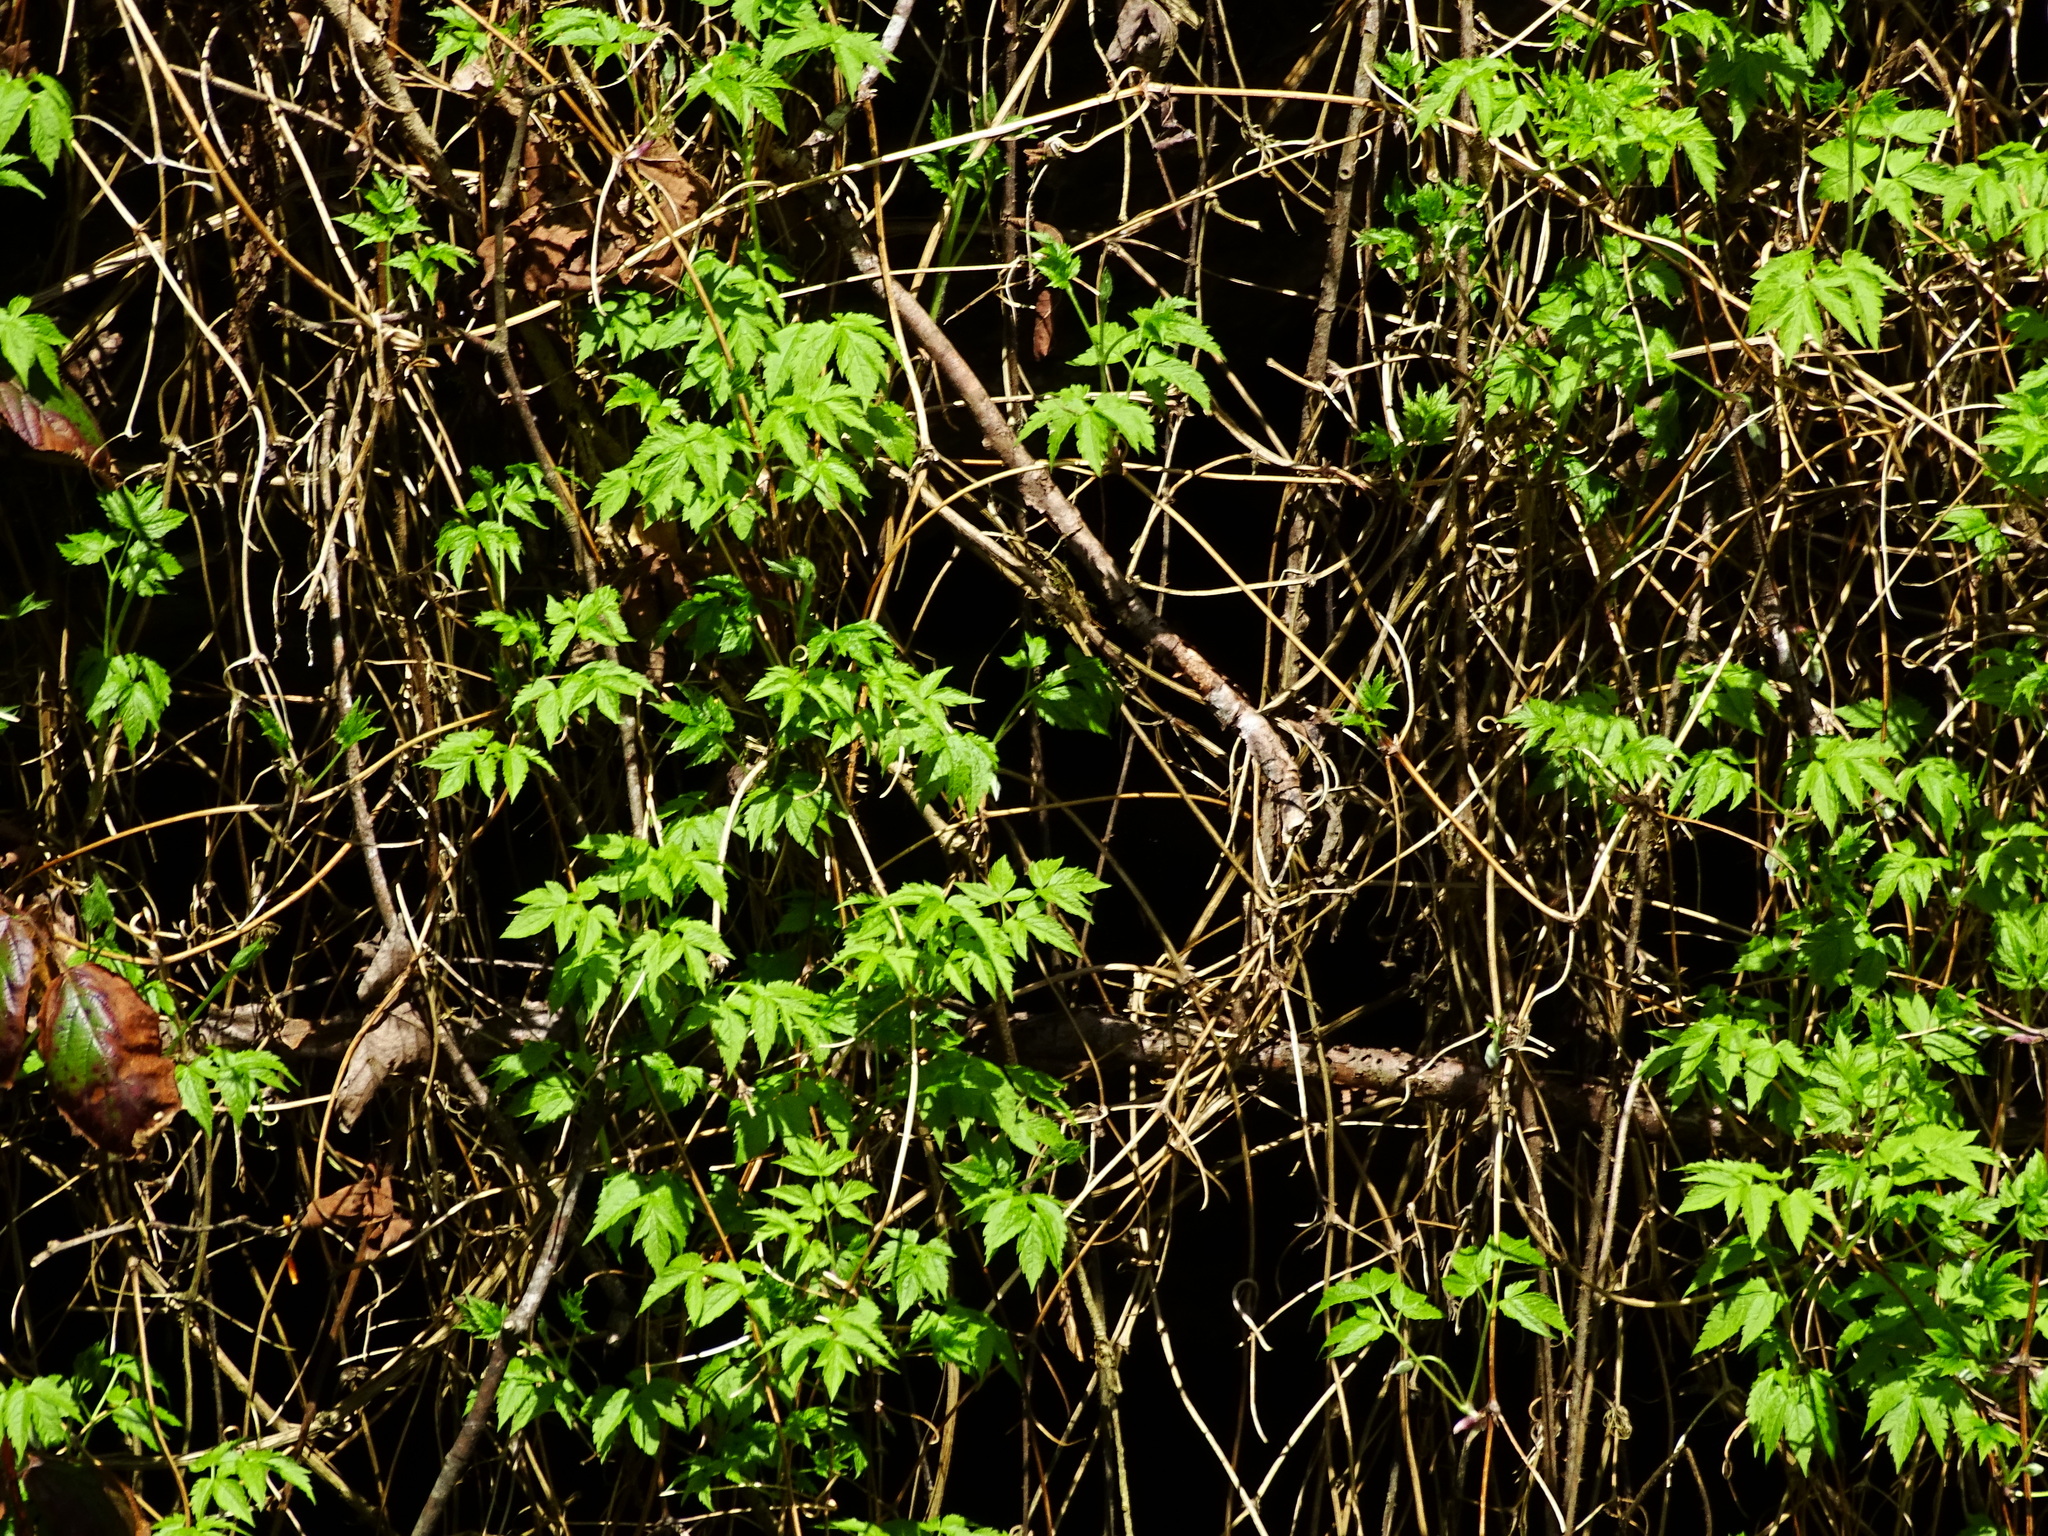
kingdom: Plantae
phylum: Tracheophyta
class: Magnoliopsida
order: Ranunculales
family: Ranunculaceae
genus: Clematis
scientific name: Clematis alpina
